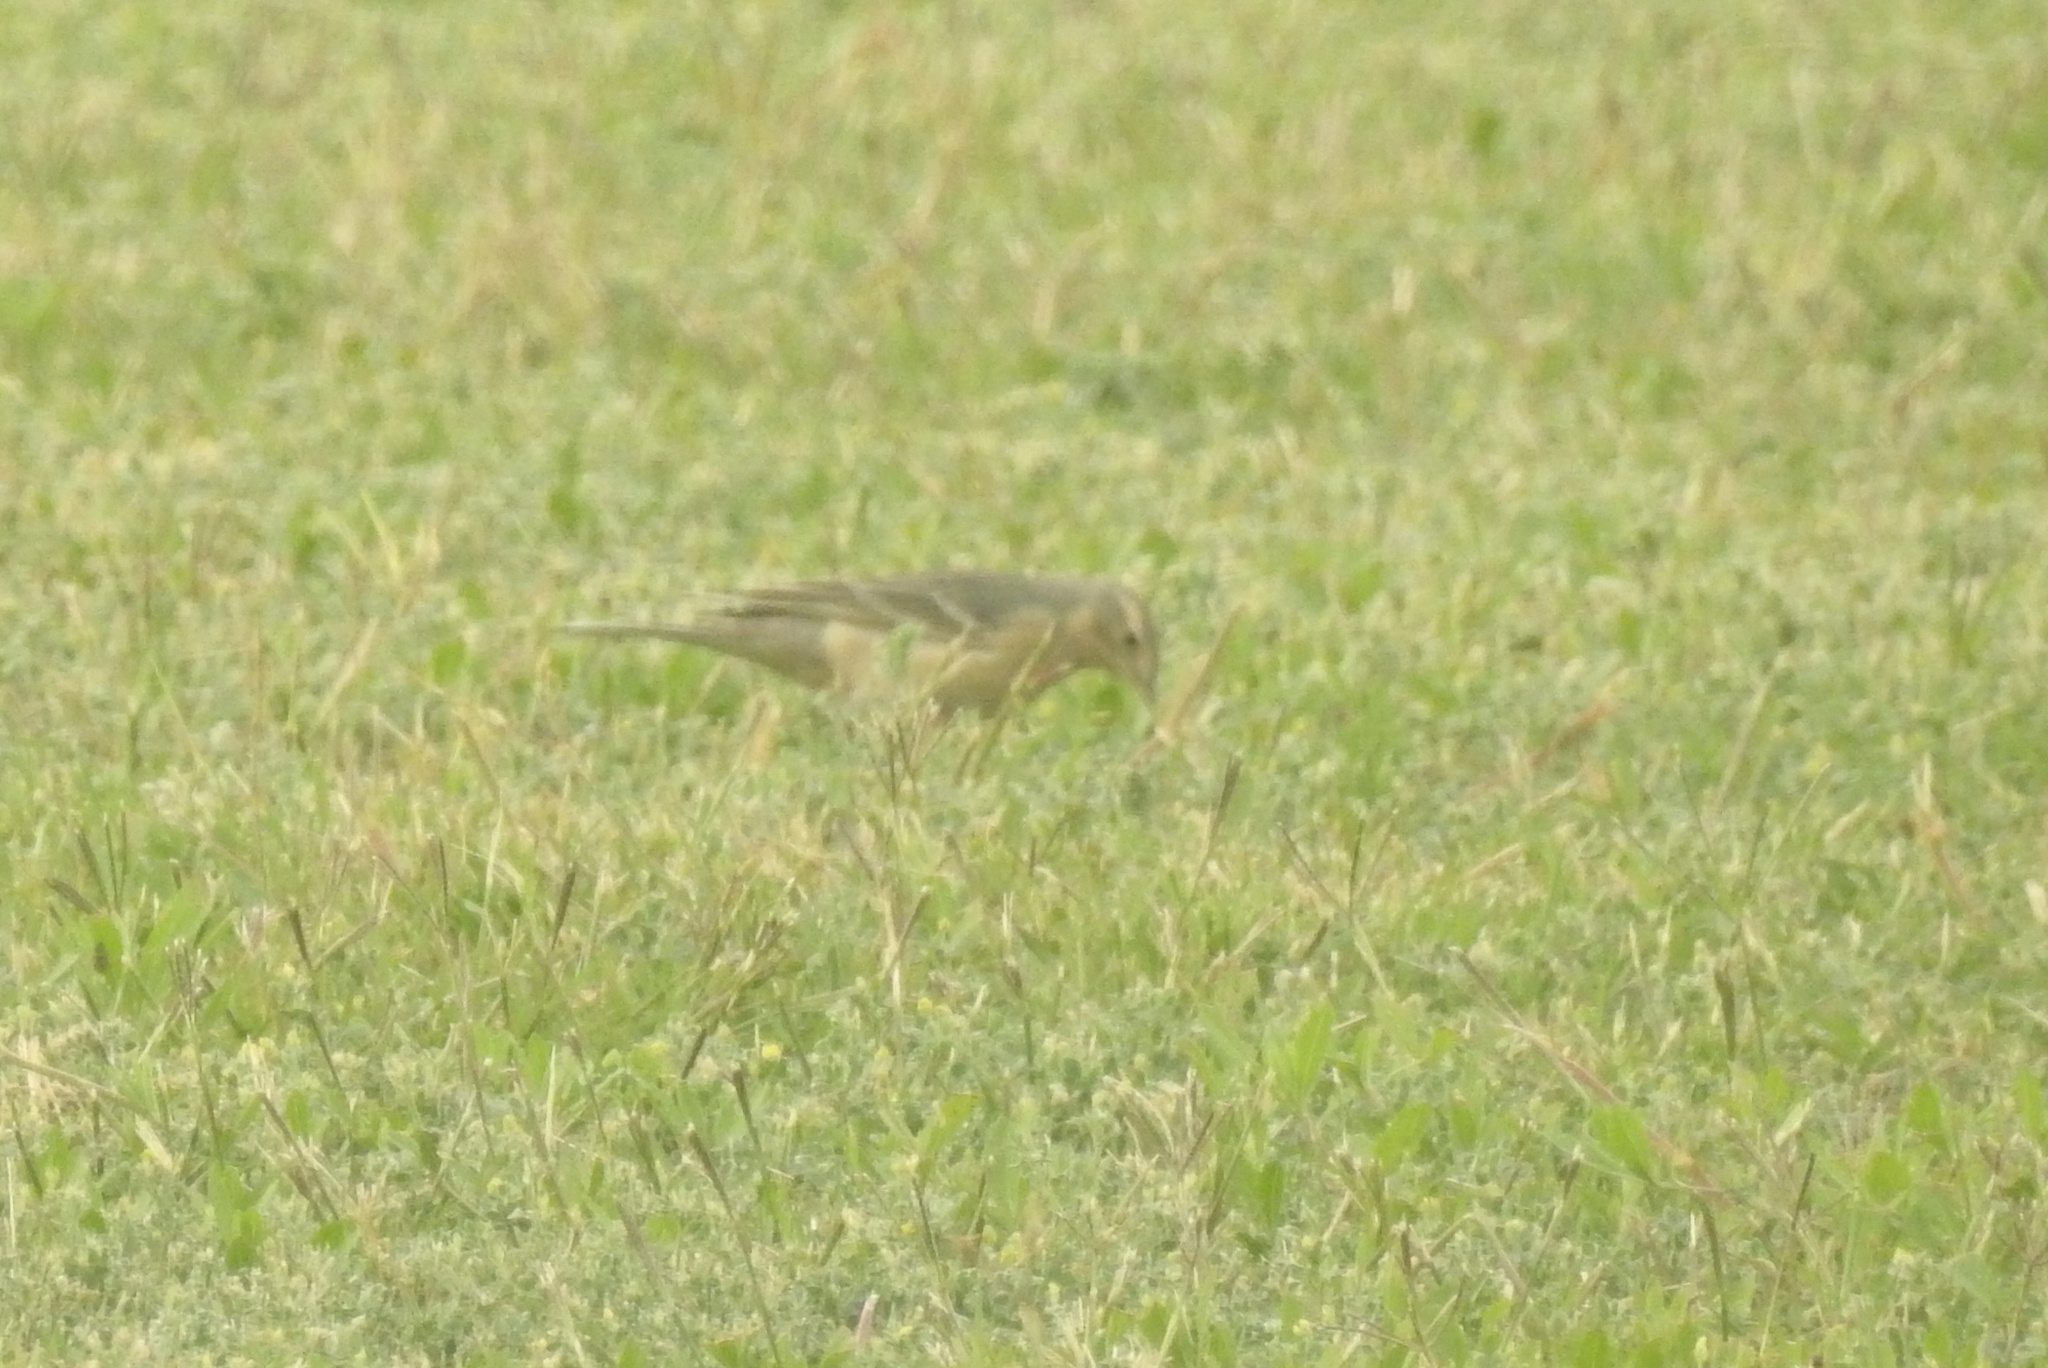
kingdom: Animalia
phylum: Chordata
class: Aves
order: Passeriformes
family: Motacillidae
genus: Anthus
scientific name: Anthus rubescens
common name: Buff-bellied pipit
